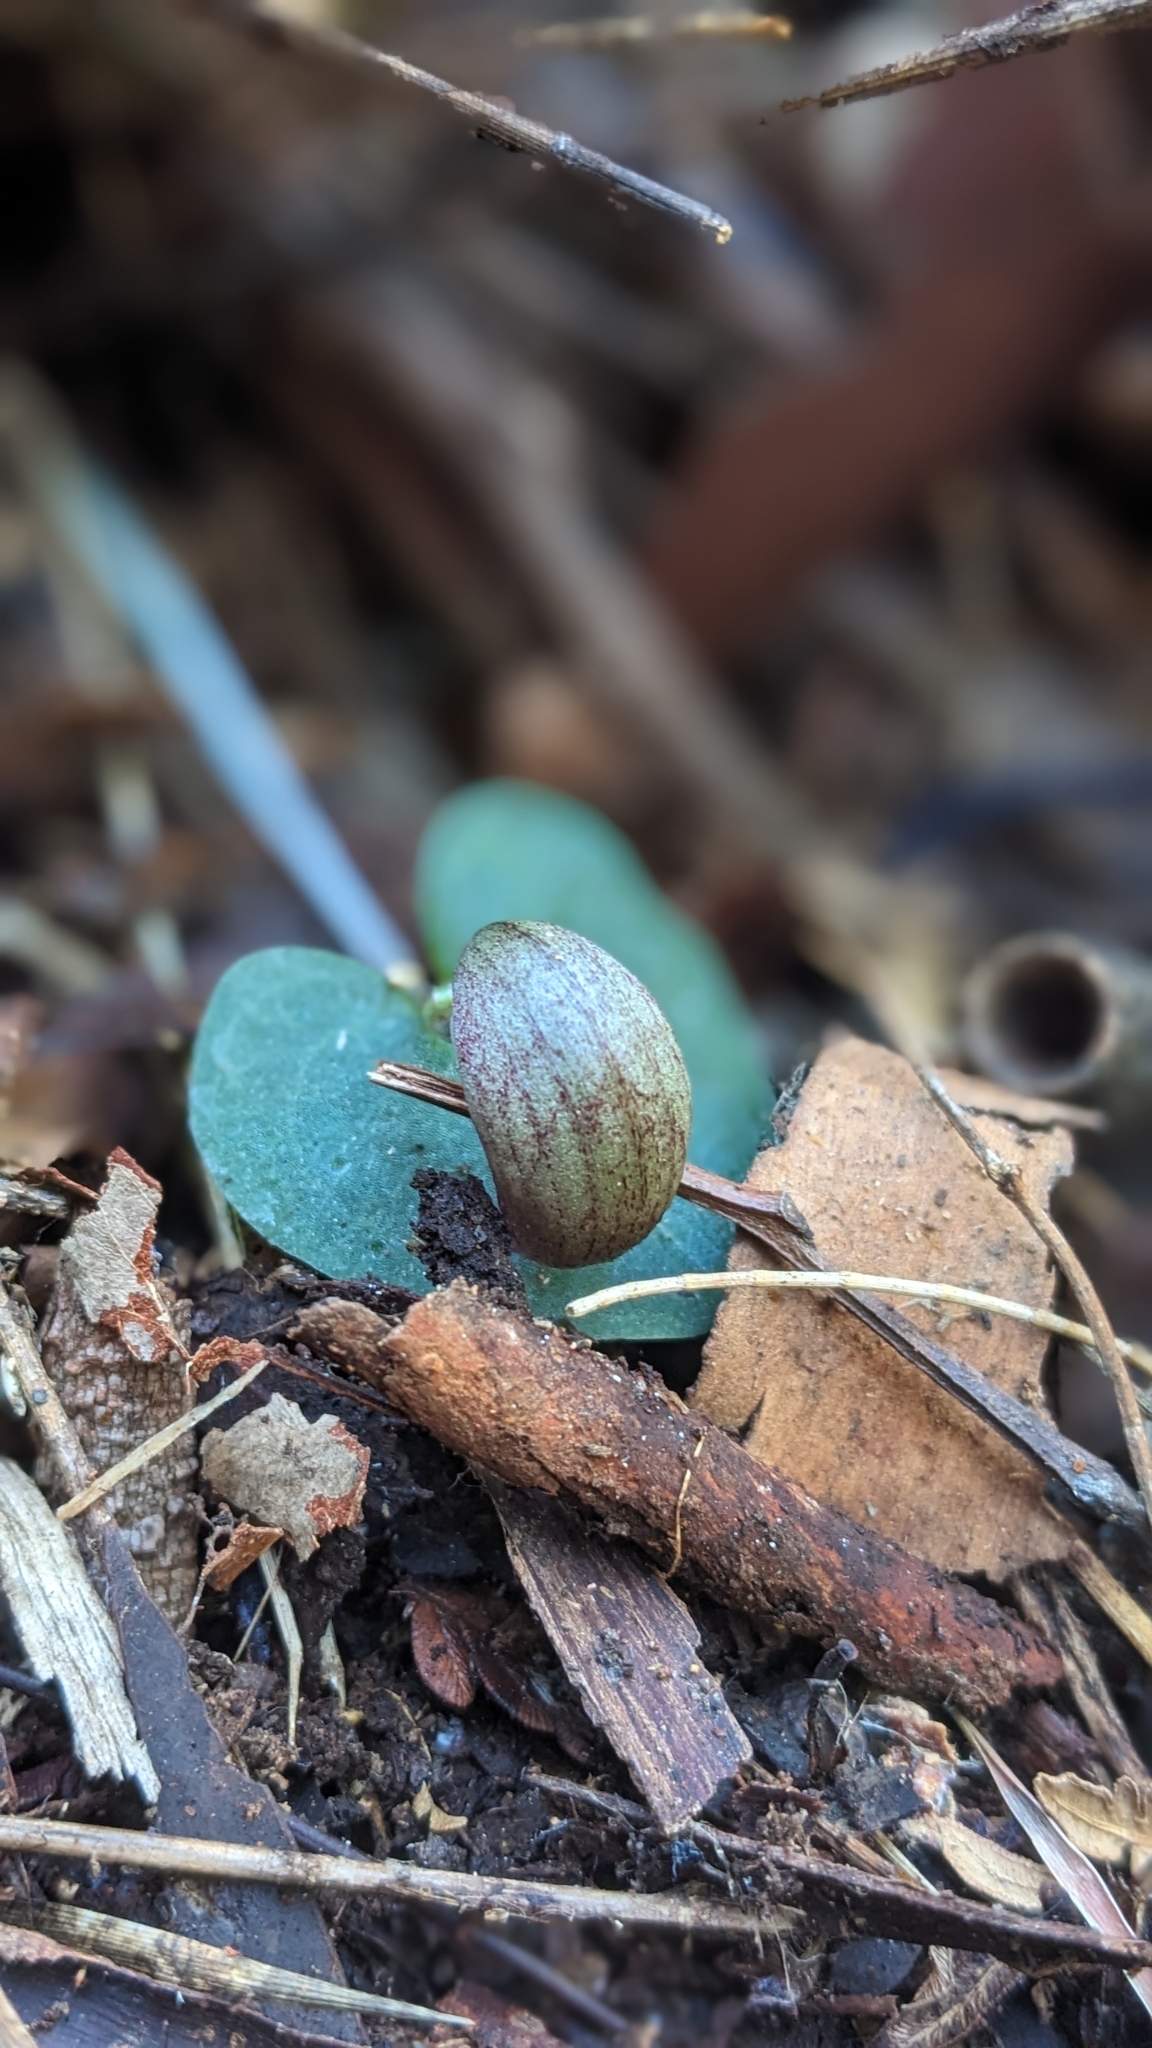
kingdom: Plantae
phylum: Tracheophyta
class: Liliopsida
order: Asparagales
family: Orchidaceae
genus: Corybas
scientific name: Corybas aconitiflorus
